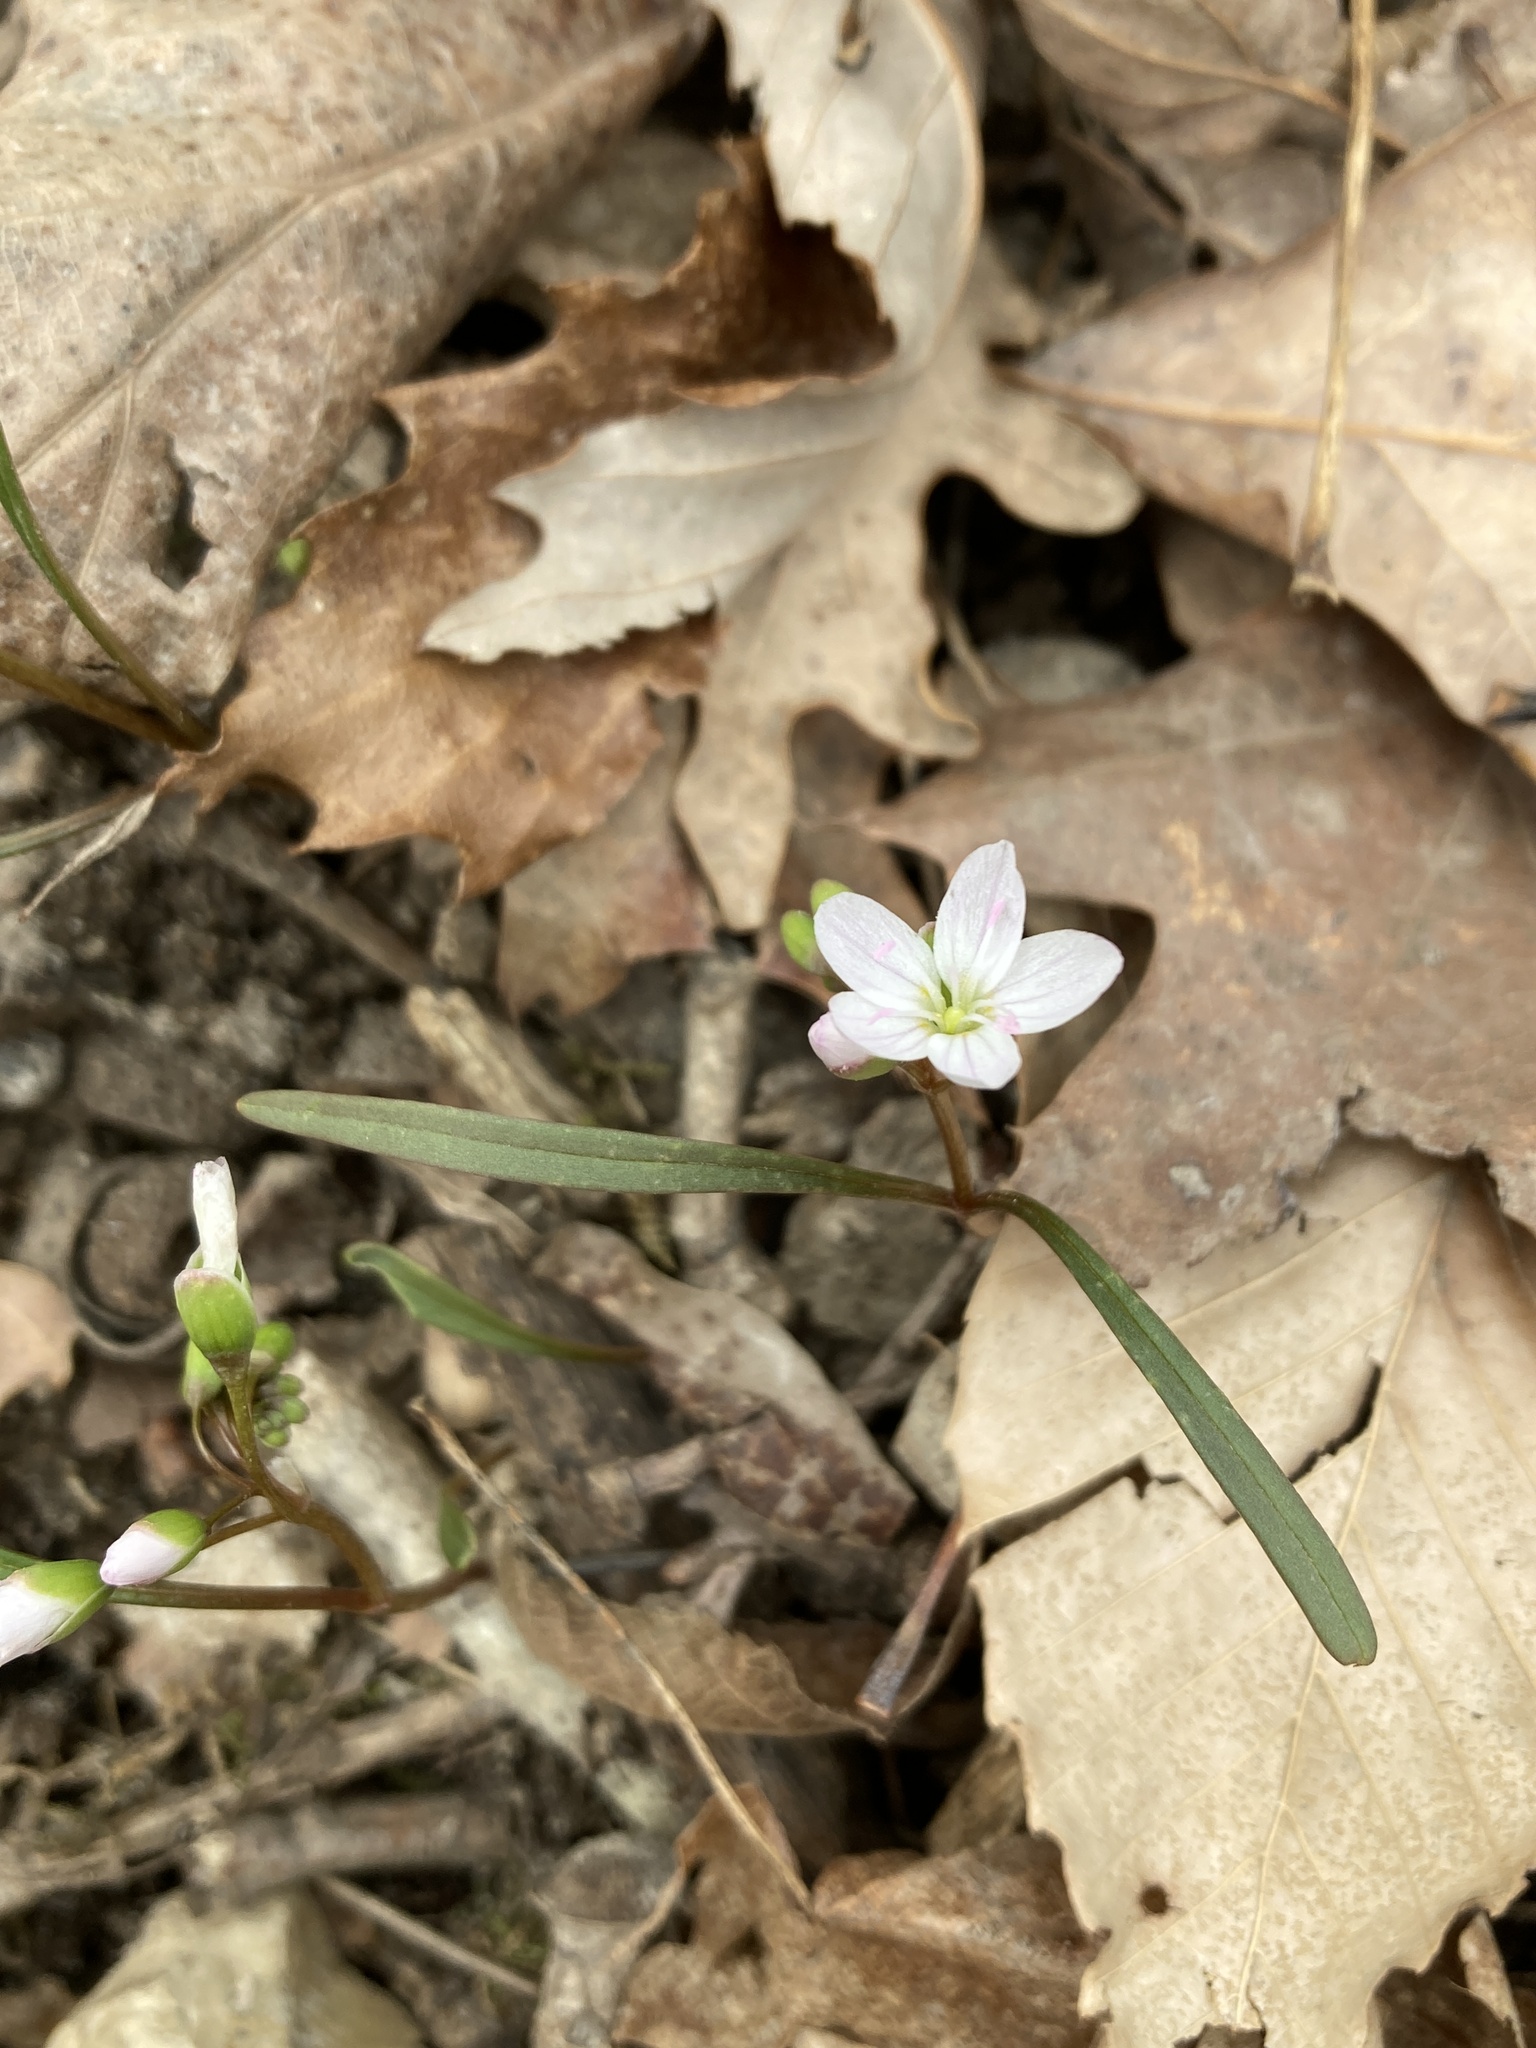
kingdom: Plantae
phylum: Tracheophyta
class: Magnoliopsida
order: Caryophyllales
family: Montiaceae
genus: Claytonia
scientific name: Claytonia virginica
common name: Virginia springbeauty
